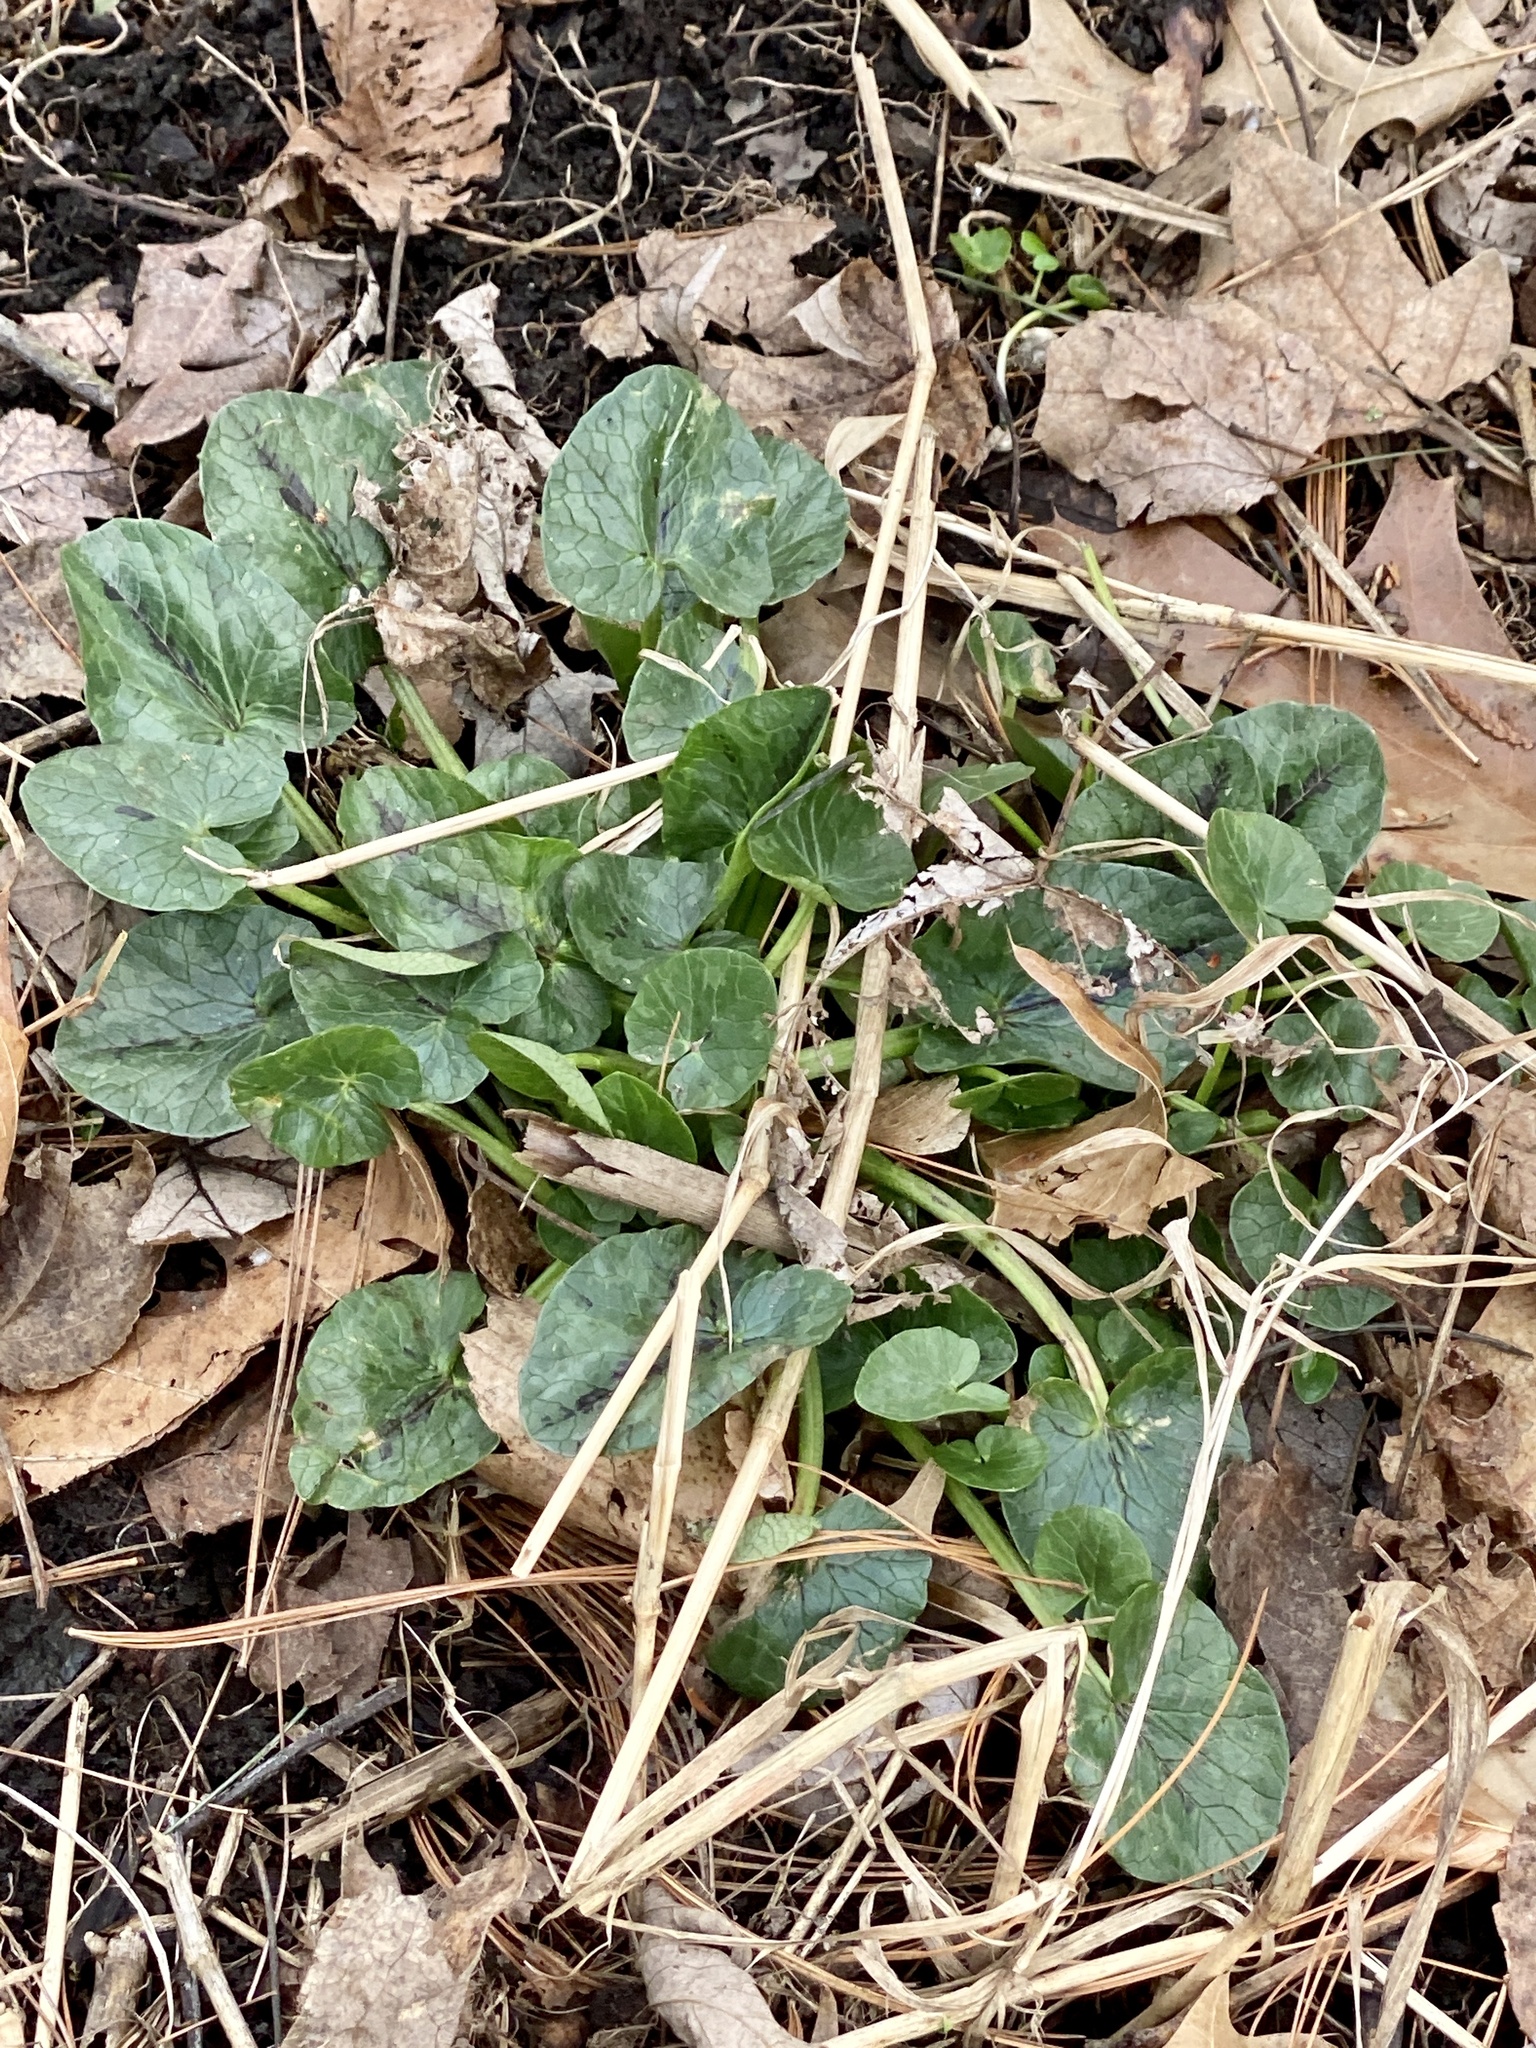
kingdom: Plantae
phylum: Tracheophyta
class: Magnoliopsida
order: Ranunculales
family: Ranunculaceae
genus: Ficaria
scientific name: Ficaria verna
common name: Lesser celandine
